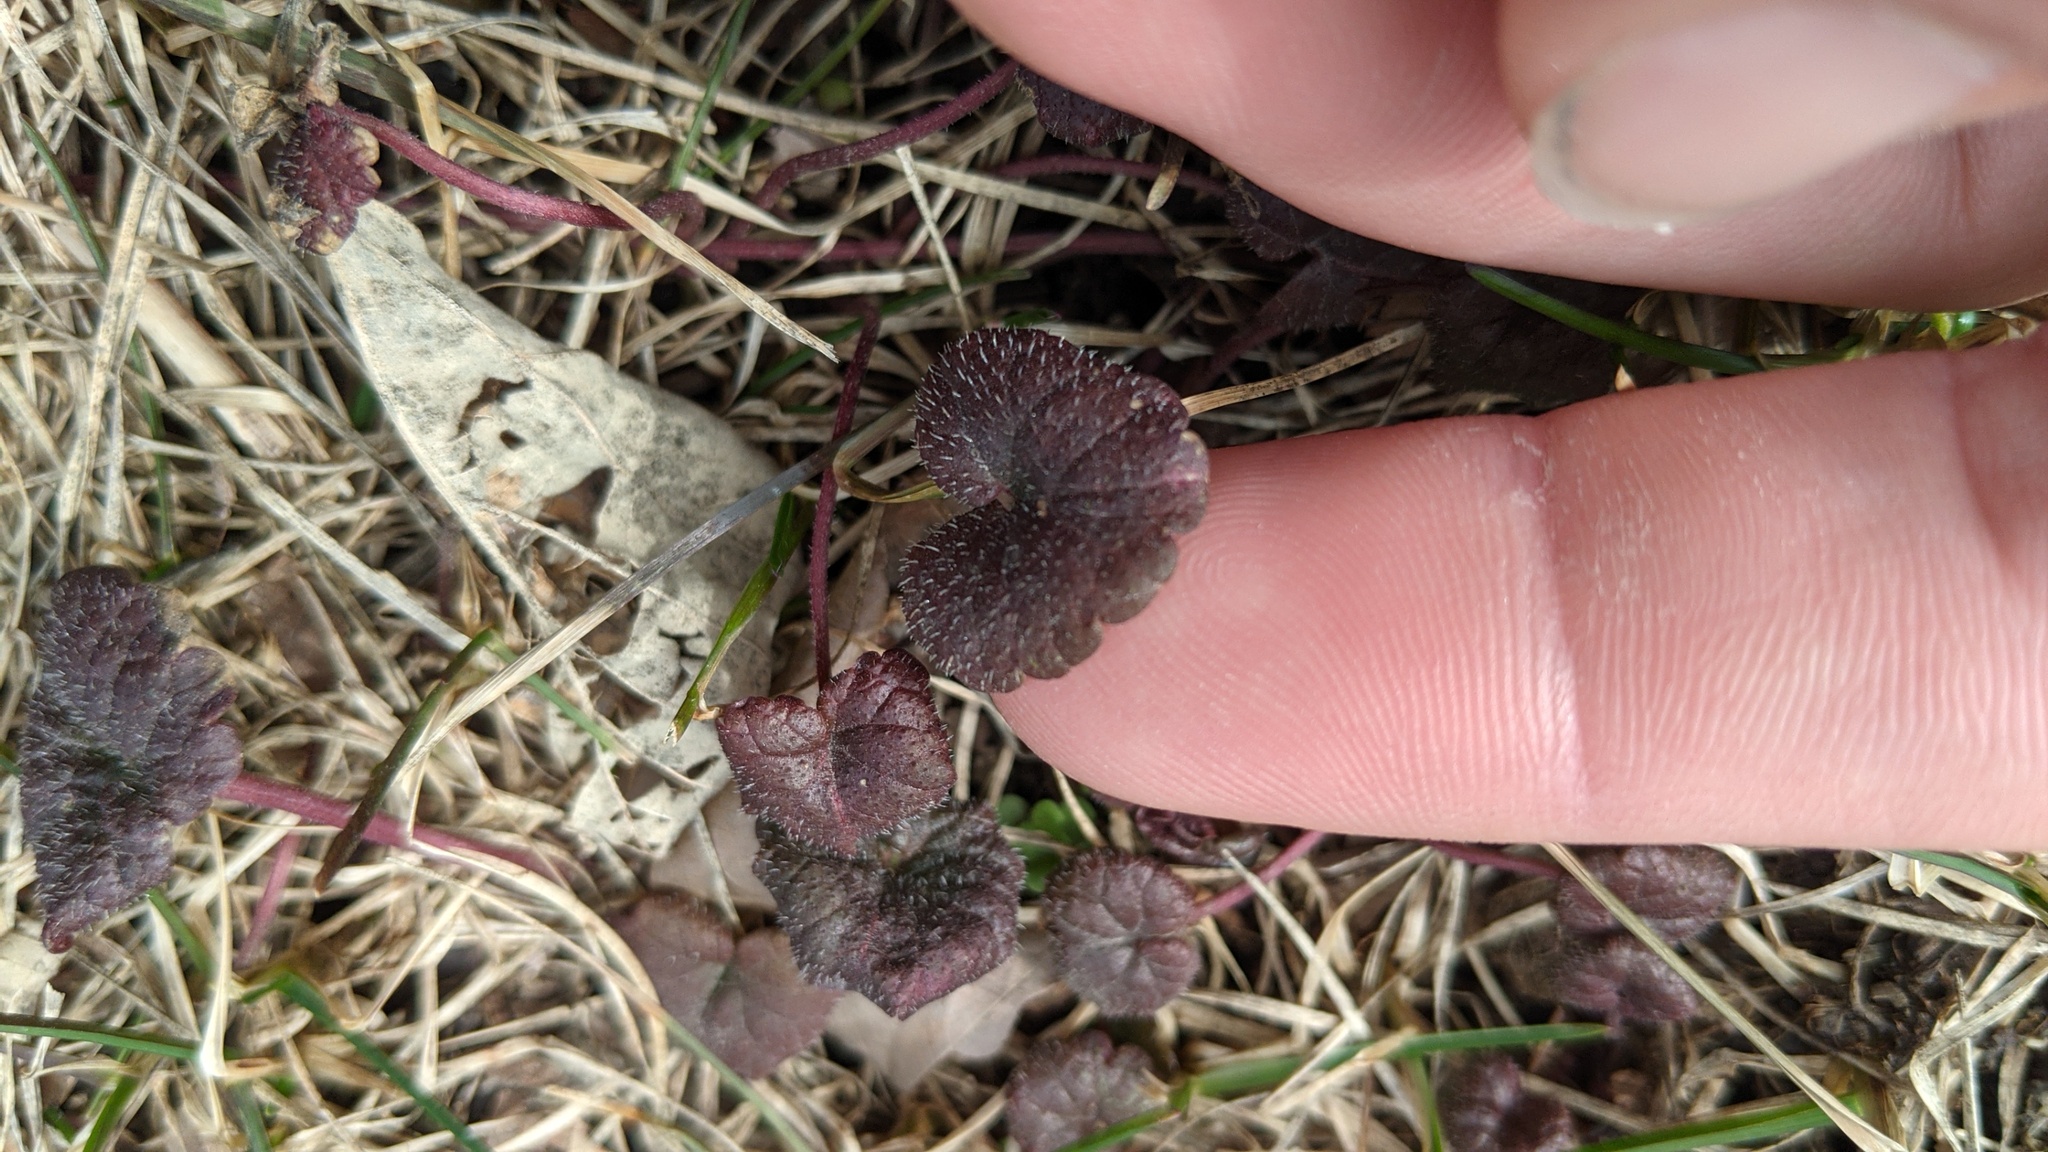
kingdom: Plantae
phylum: Tracheophyta
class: Magnoliopsida
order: Lamiales
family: Lamiaceae
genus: Glechoma
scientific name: Glechoma hederacea
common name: Ground ivy
